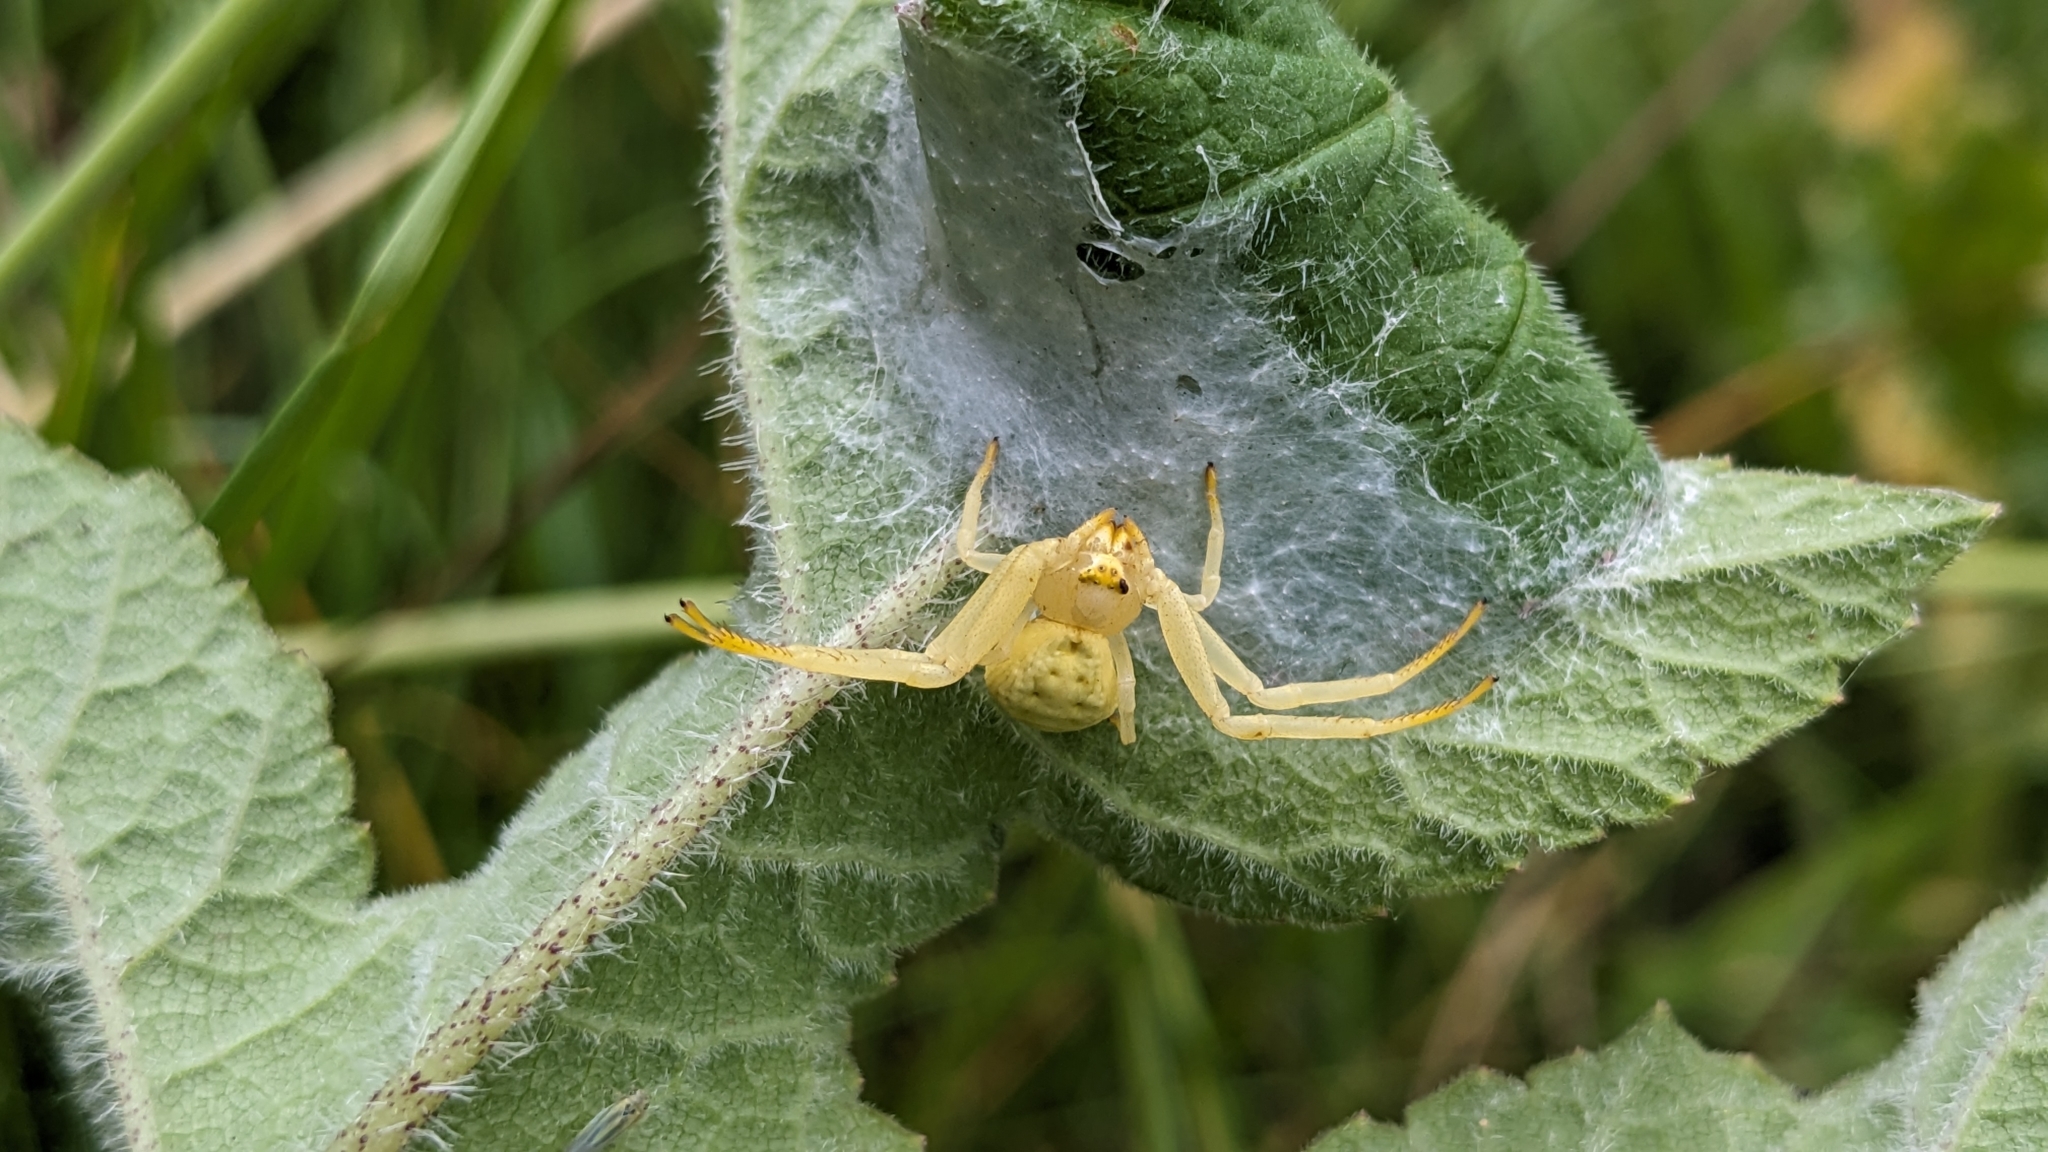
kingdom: Animalia
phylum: Arthropoda
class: Arachnida
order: Araneae
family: Thomisidae
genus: Misumena
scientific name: Misumena vatia
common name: Goldenrod crab spider
